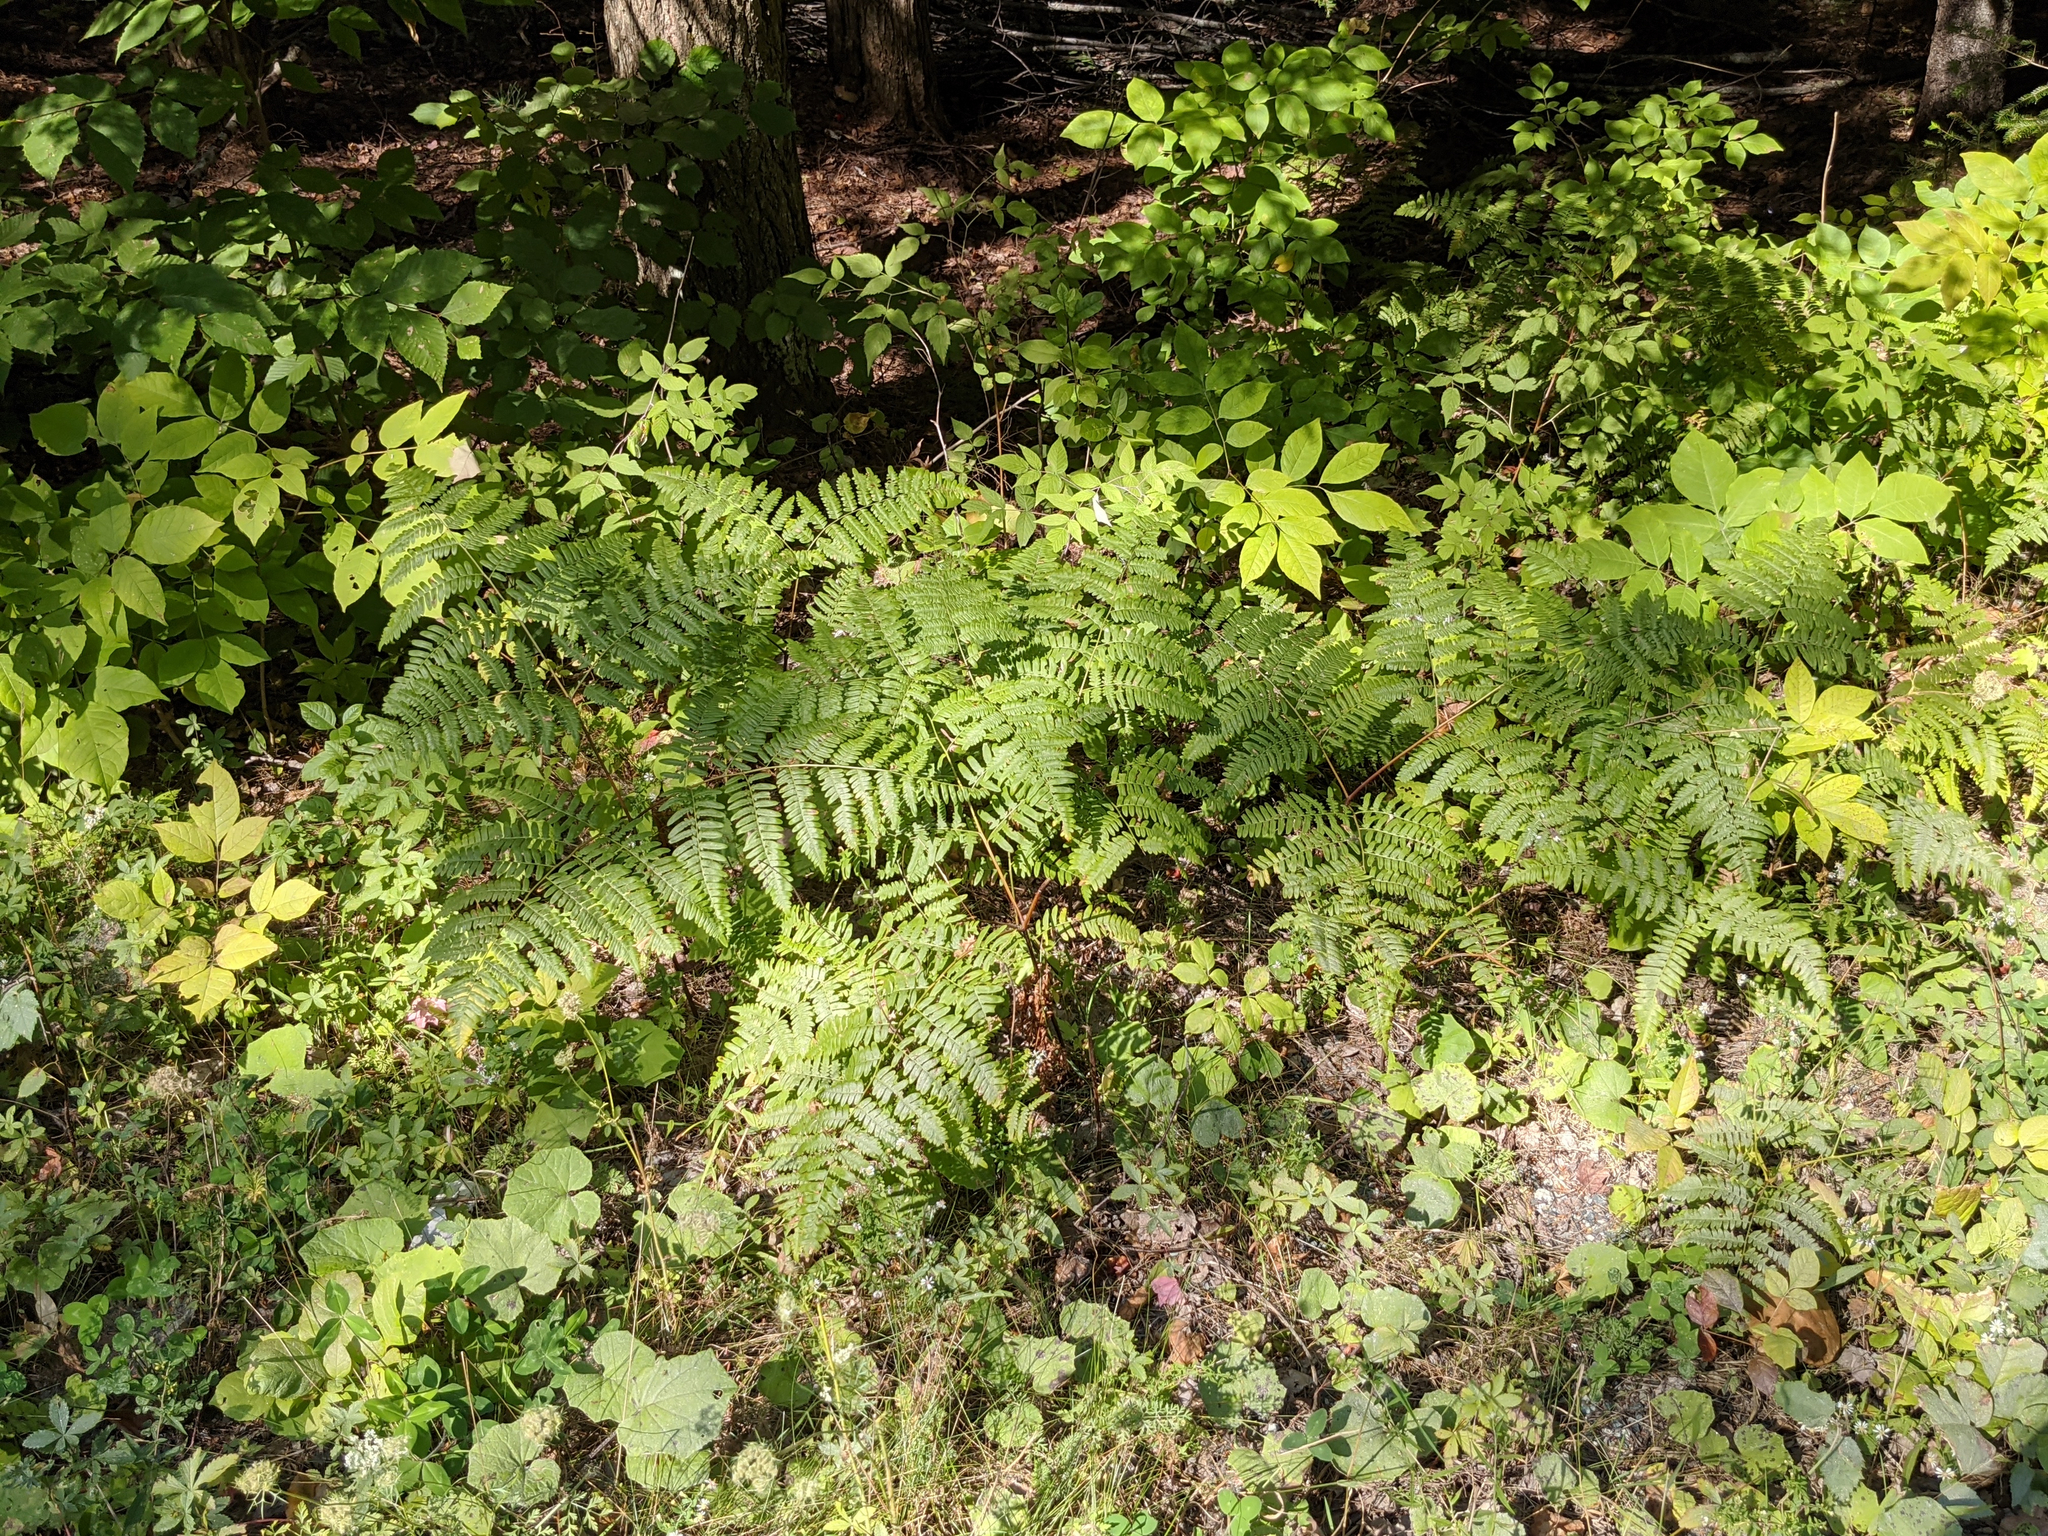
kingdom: Plantae
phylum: Tracheophyta
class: Polypodiopsida
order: Polypodiales
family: Dennstaedtiaceae
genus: Pteridium
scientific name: Pteridium aquilinum
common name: Bracken
